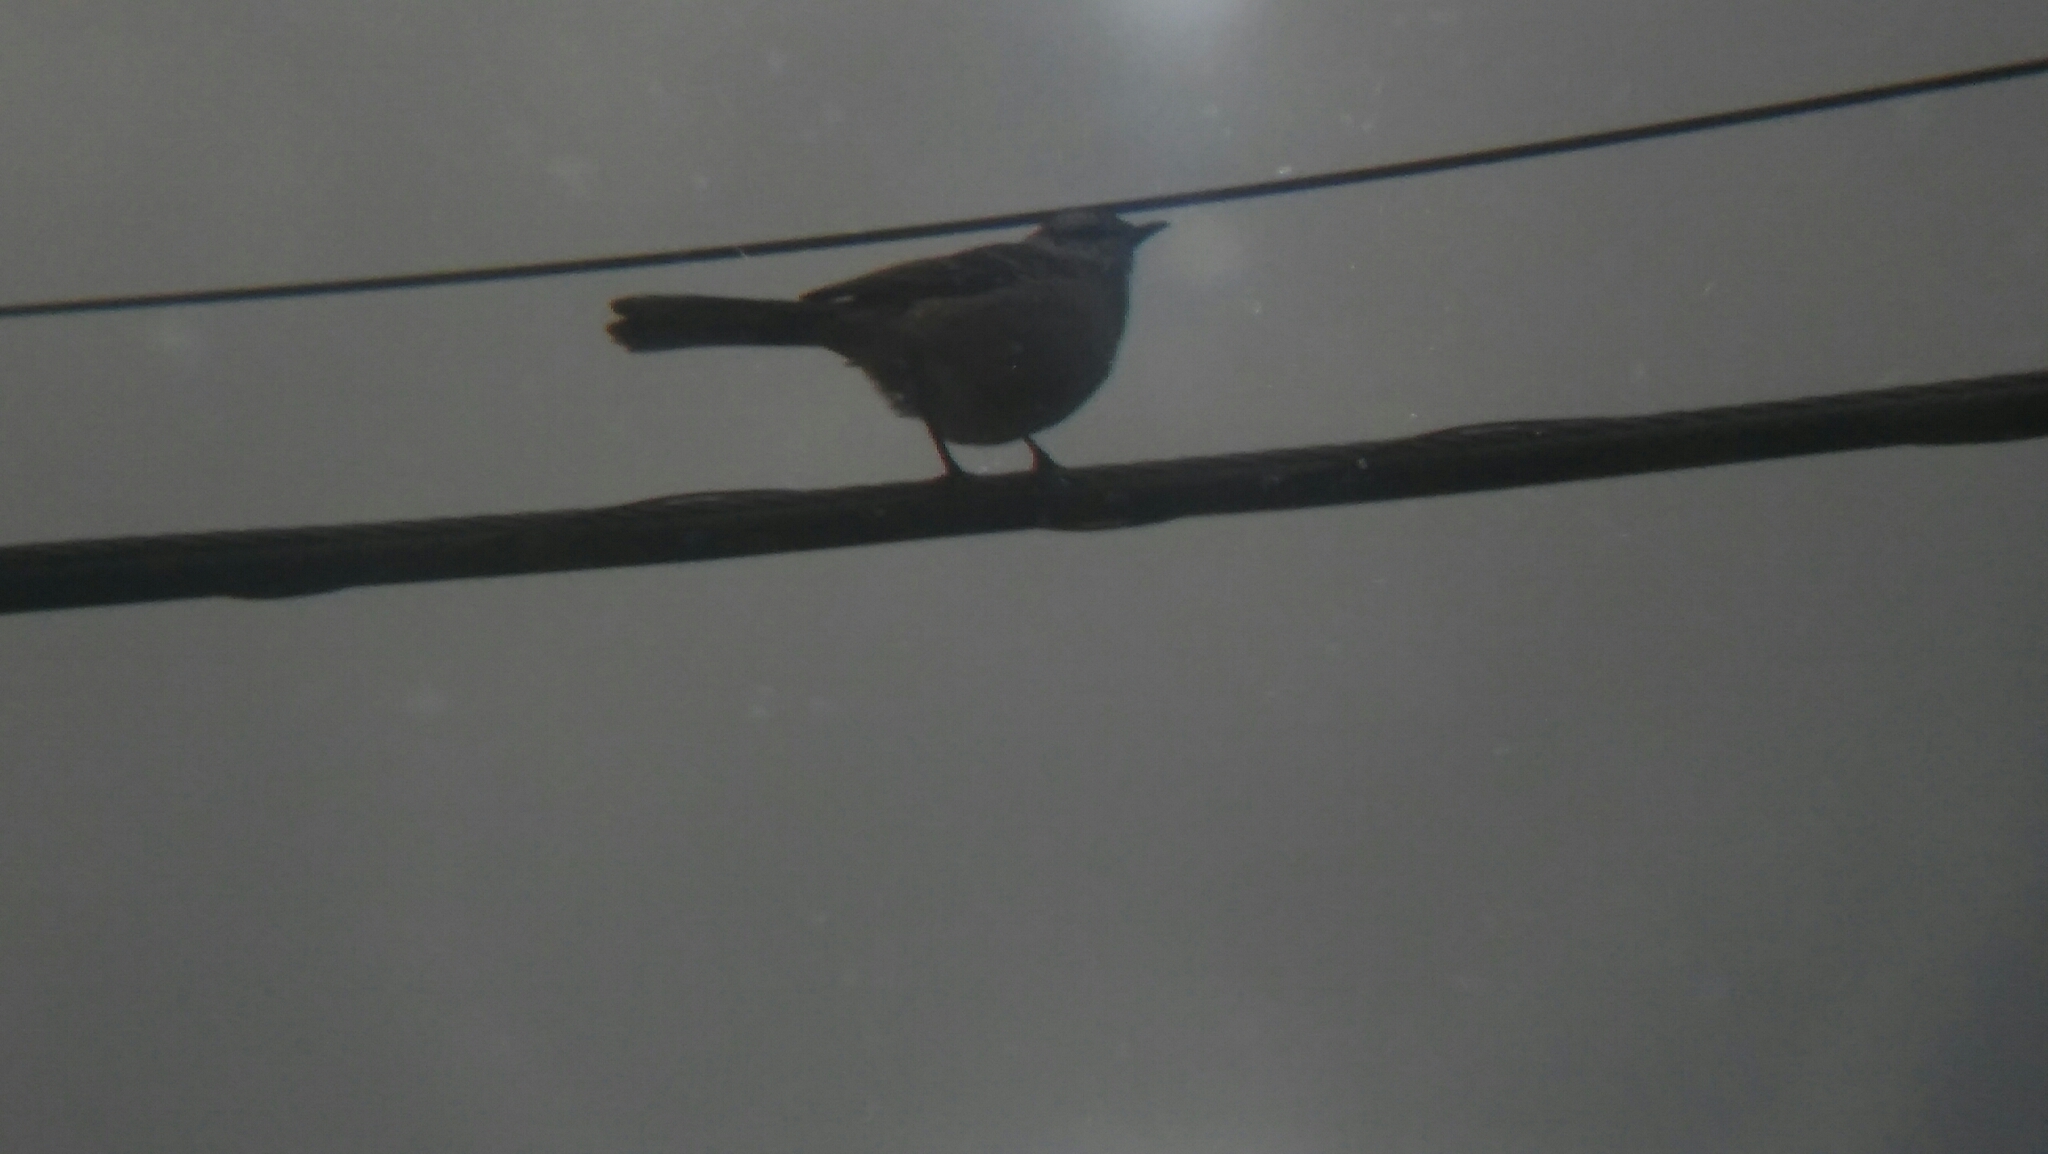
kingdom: Animalia
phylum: Chordata
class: Aves
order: Passeriformes
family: Mimidae
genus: Mimus
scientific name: Mimus saturninus
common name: Chalk-browed mockingbird
